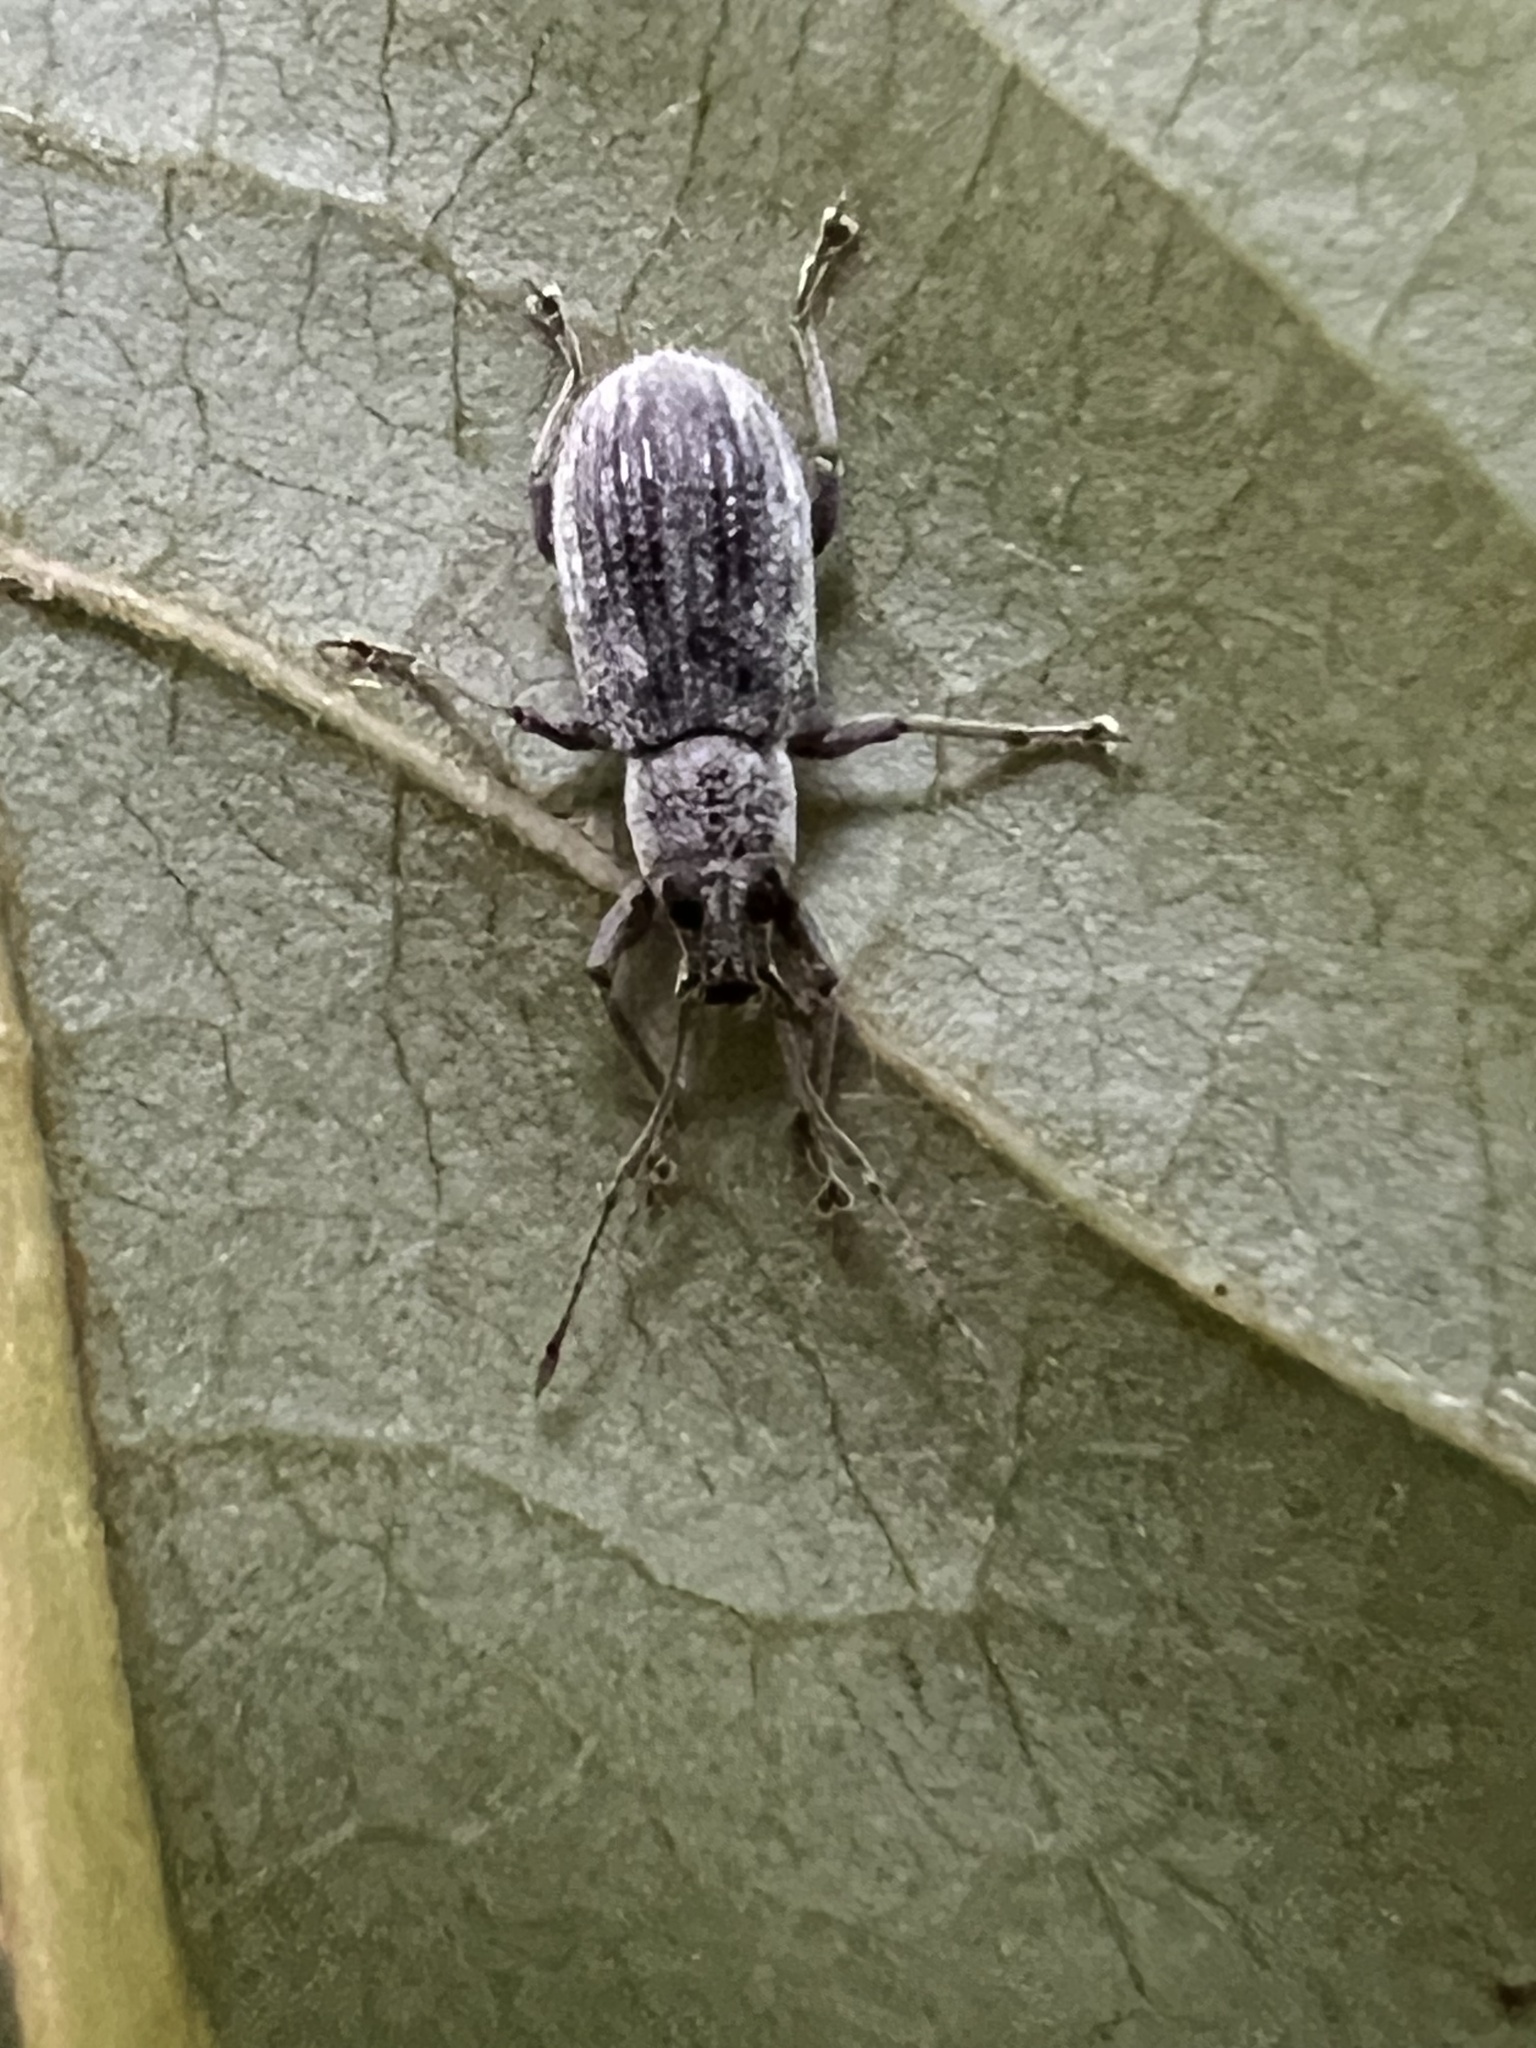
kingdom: Animalia
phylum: Arthropoda
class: Insecta
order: Coleoptera
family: Curculionidae
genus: Cyrtepistomus
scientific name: Cyrtepistomus castaneus
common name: Weevil
